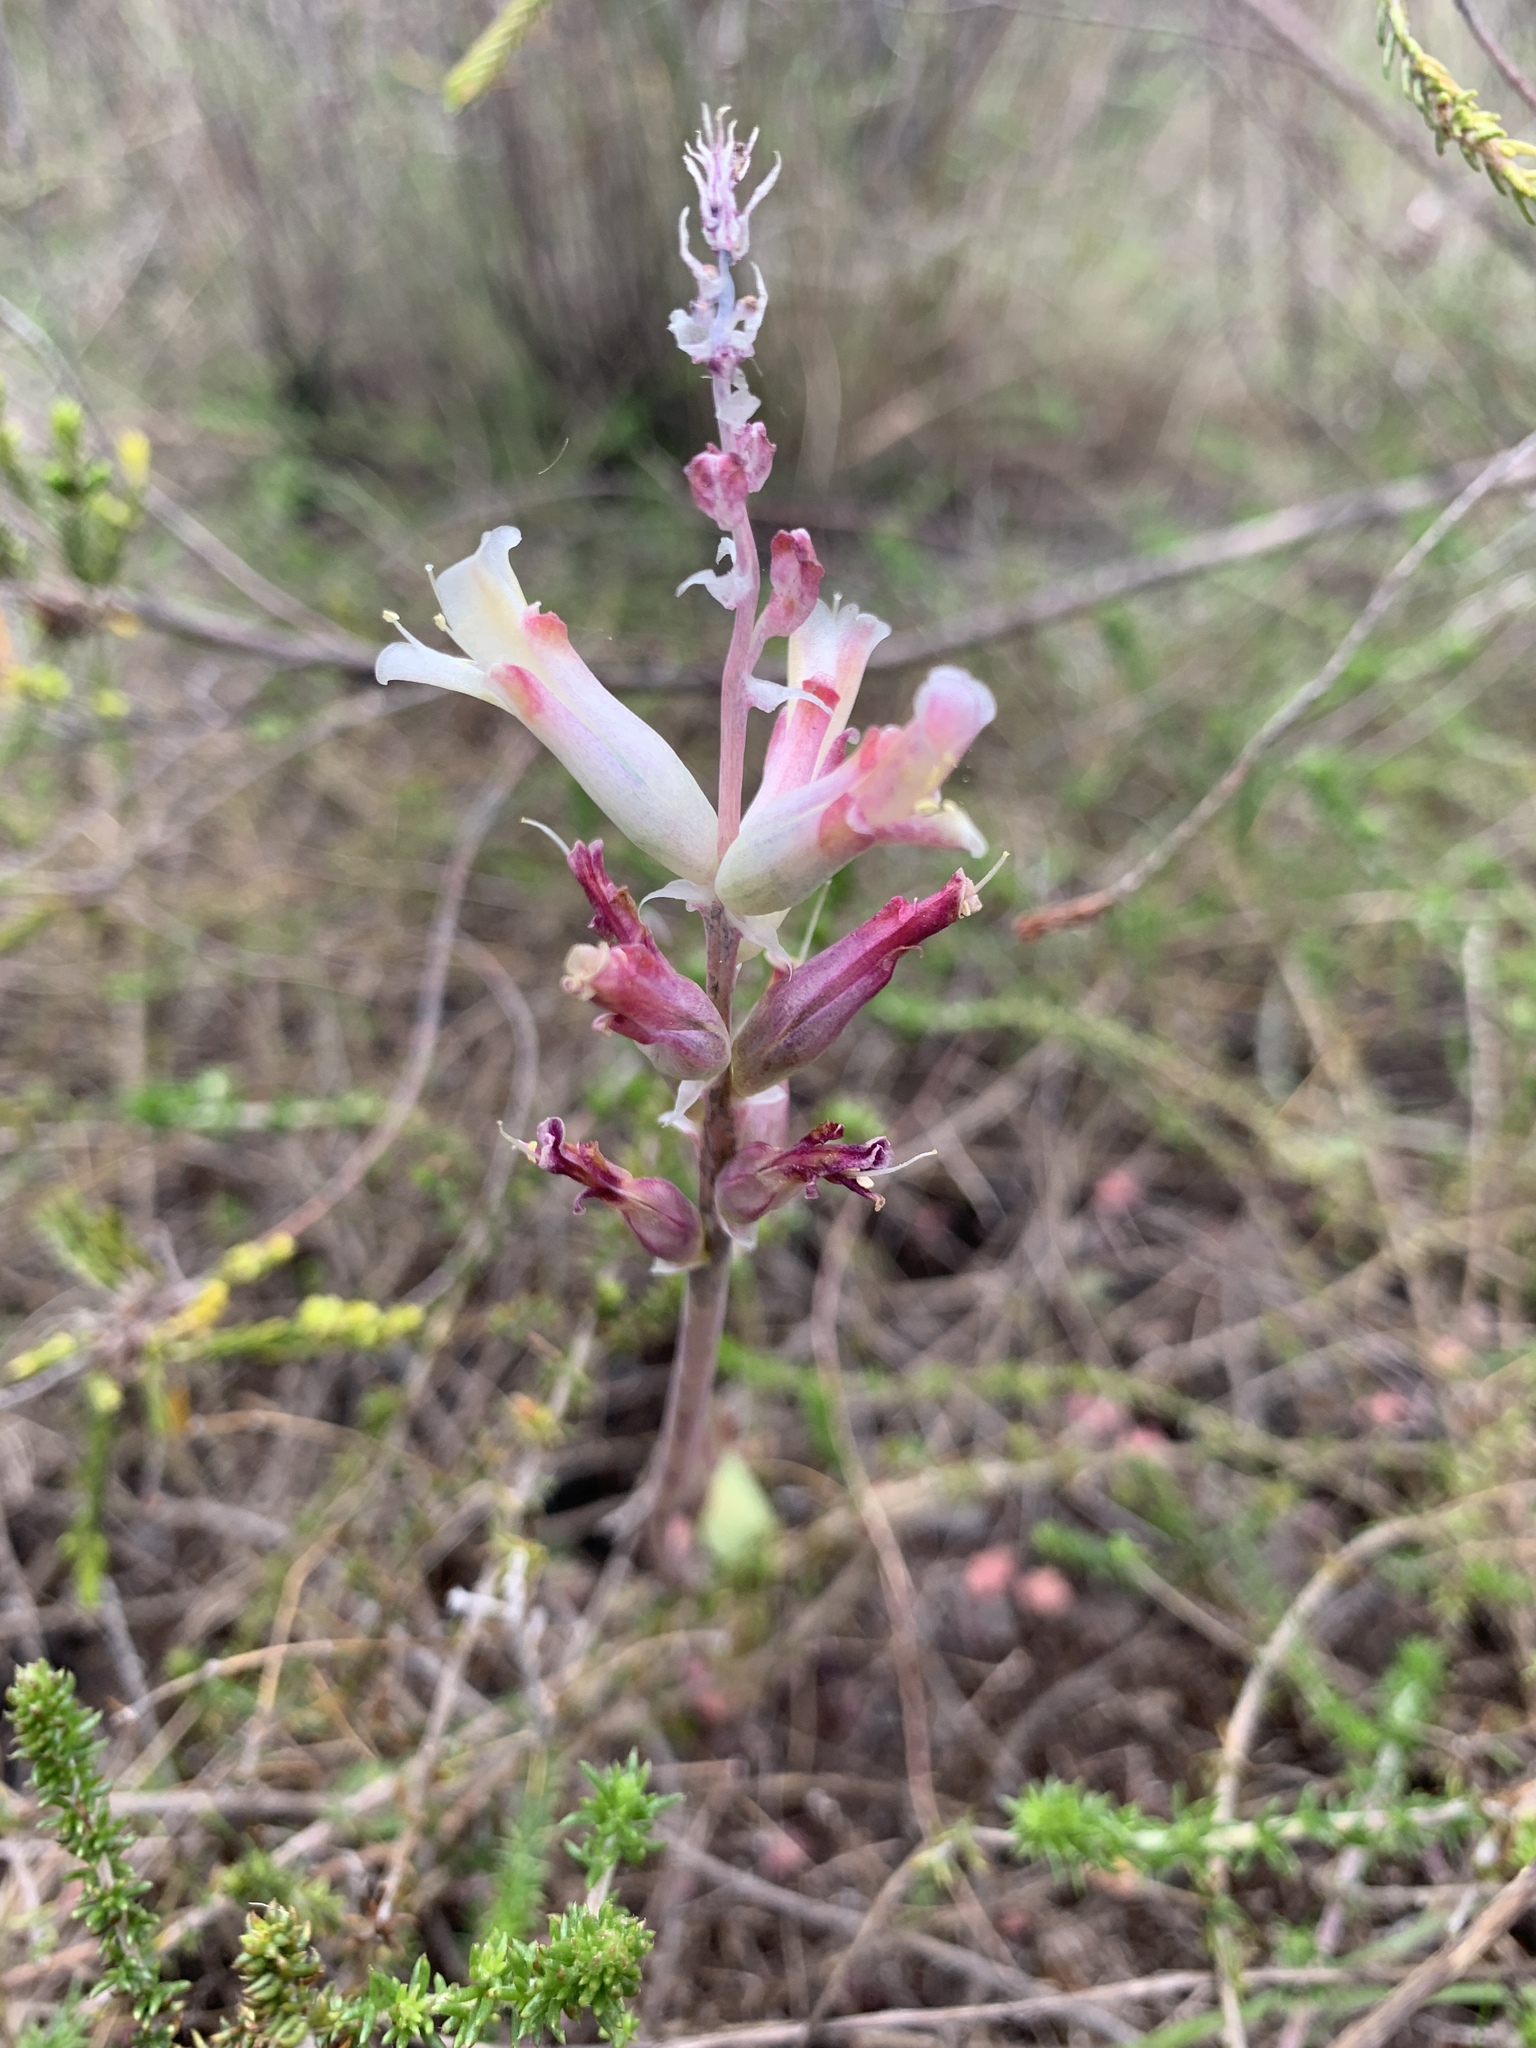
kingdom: Plantae
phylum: Tracheophyta
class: Liliopsida
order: Asparagales
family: Asparagaceae
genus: Lachenalia
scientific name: Lachenalia orchioides
